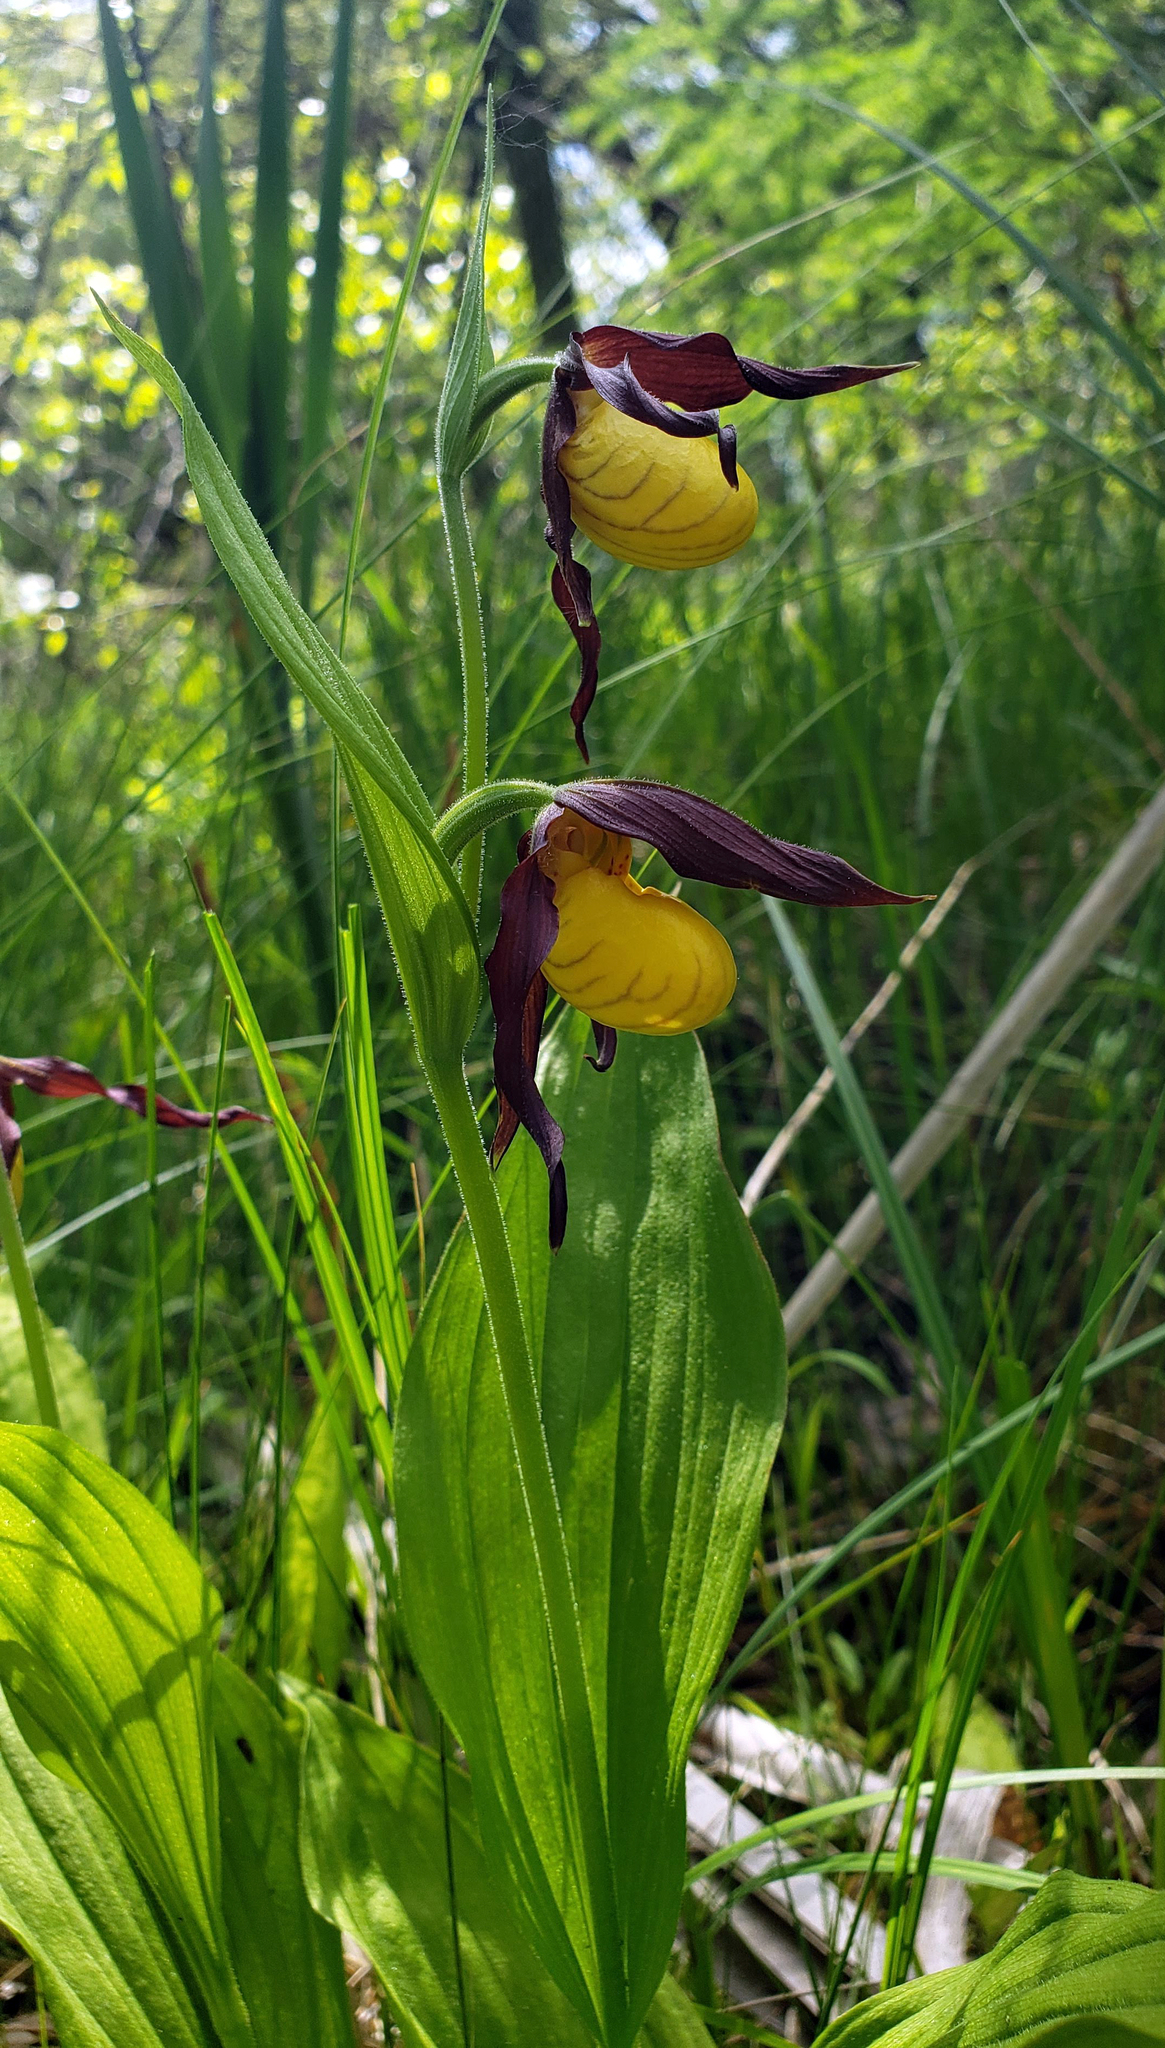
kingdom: Plantae
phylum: Tracheophyta
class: Liliopsida
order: Asparagales
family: Orchidaceae
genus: Cypripedium
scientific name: Cypripedium parviflorum
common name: American yellow lady's-slipper
